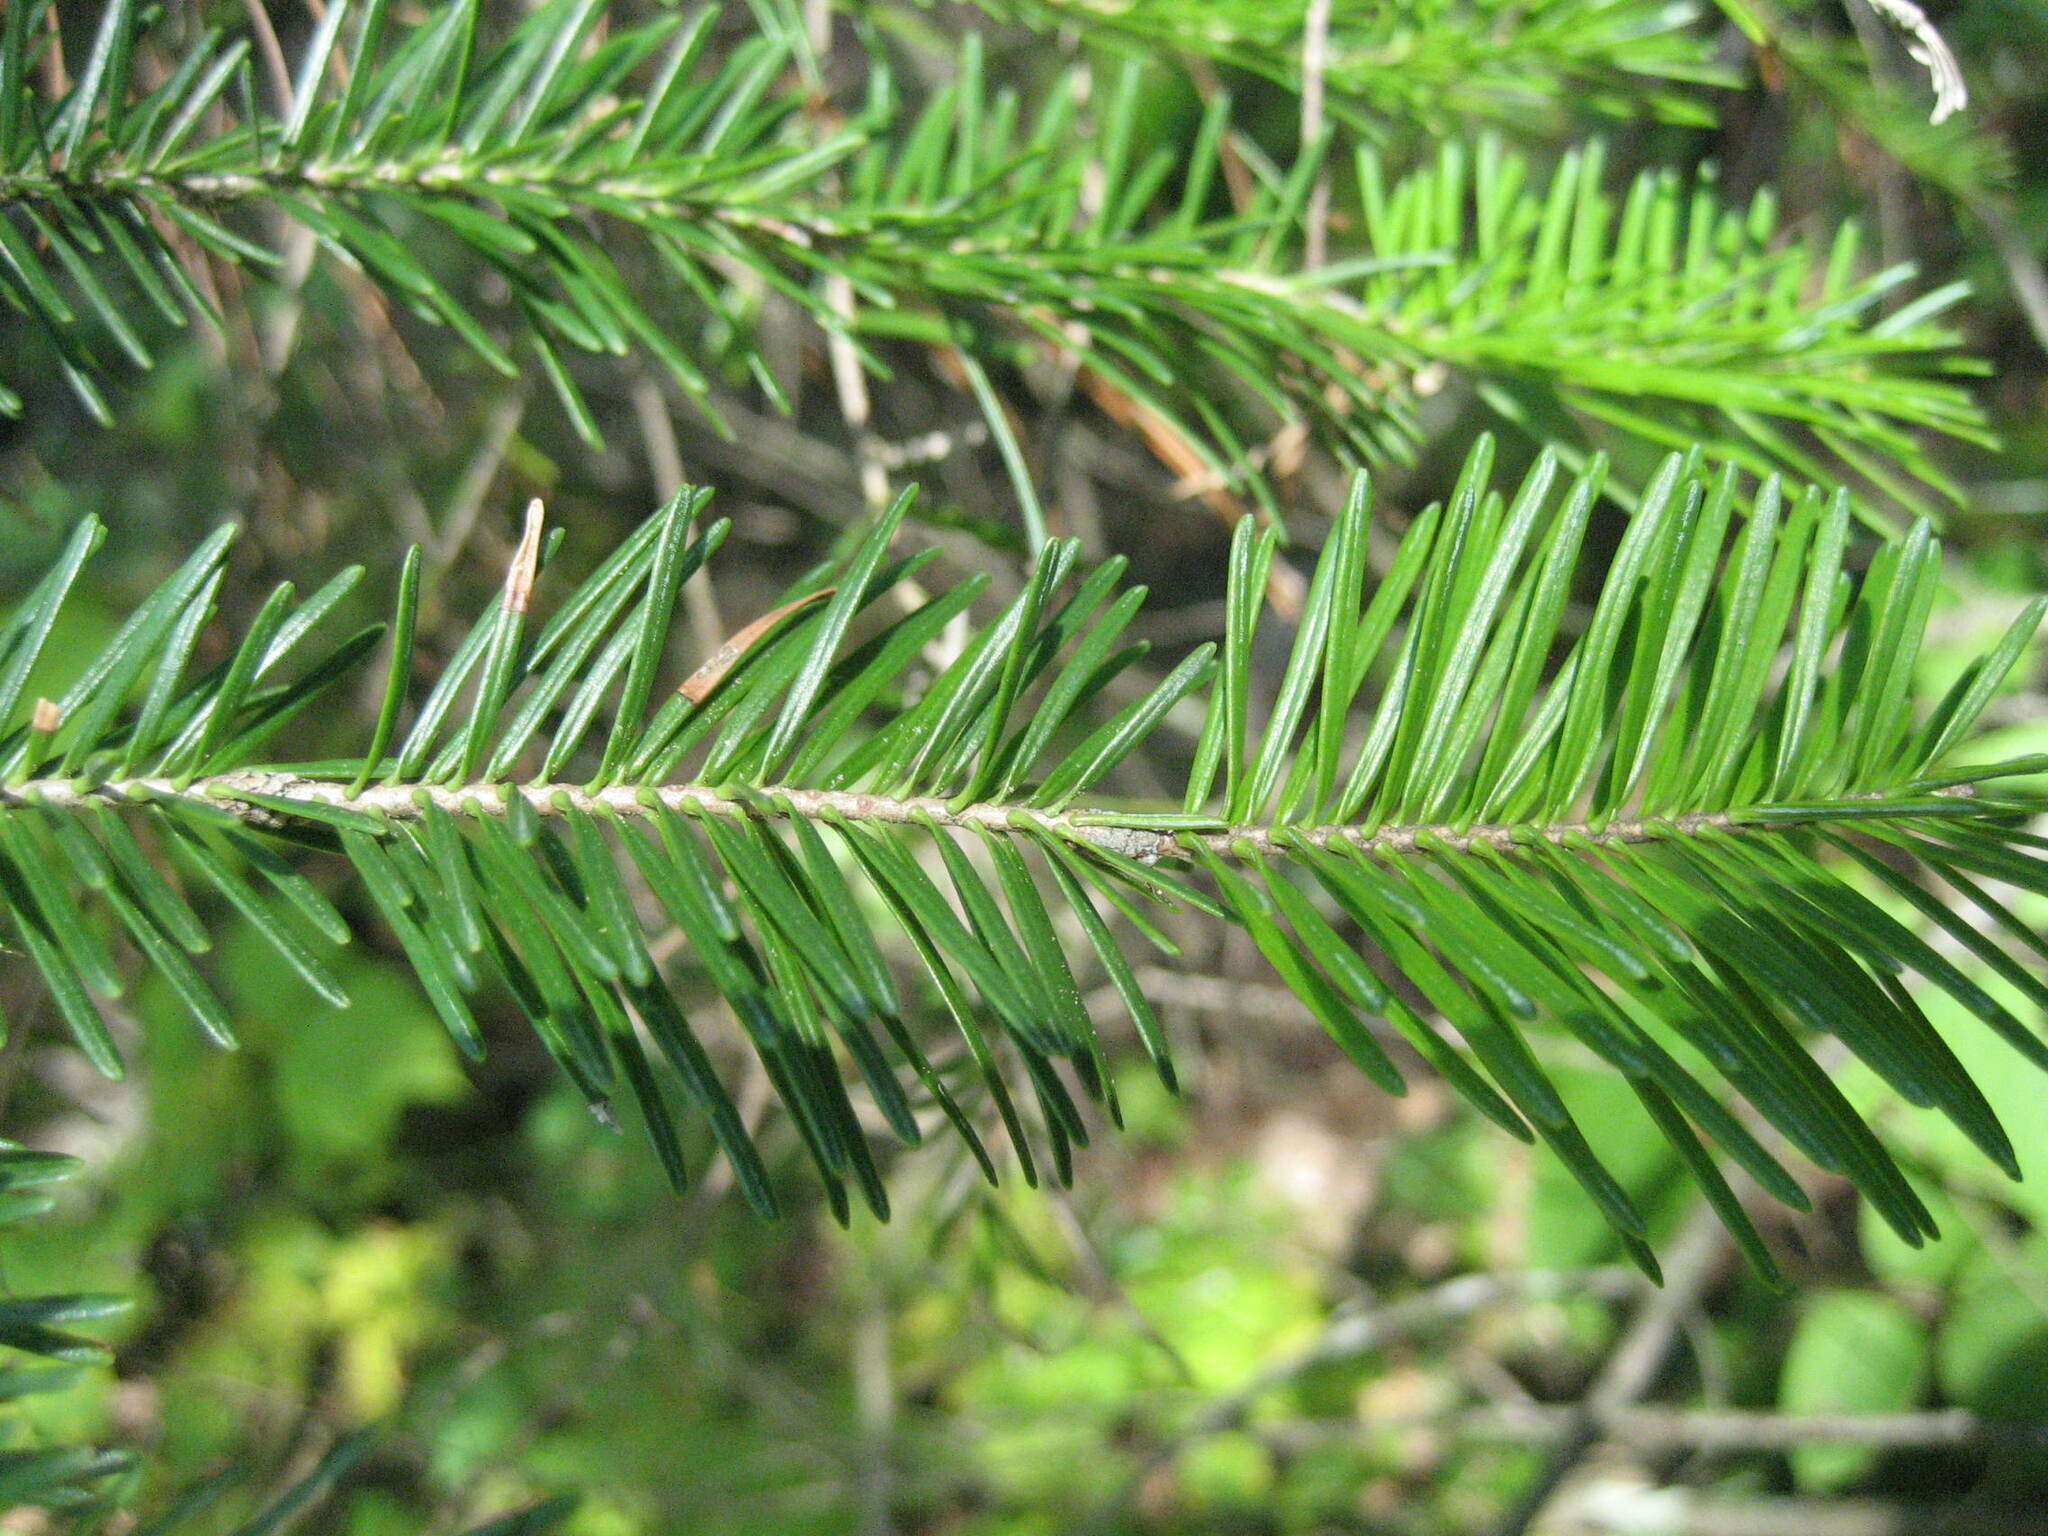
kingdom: Plantae
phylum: Tracheophyta
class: Pinopsida
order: Pinales
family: Pinaceae
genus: Abies
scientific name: Abies balsamea
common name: Balsam fir
